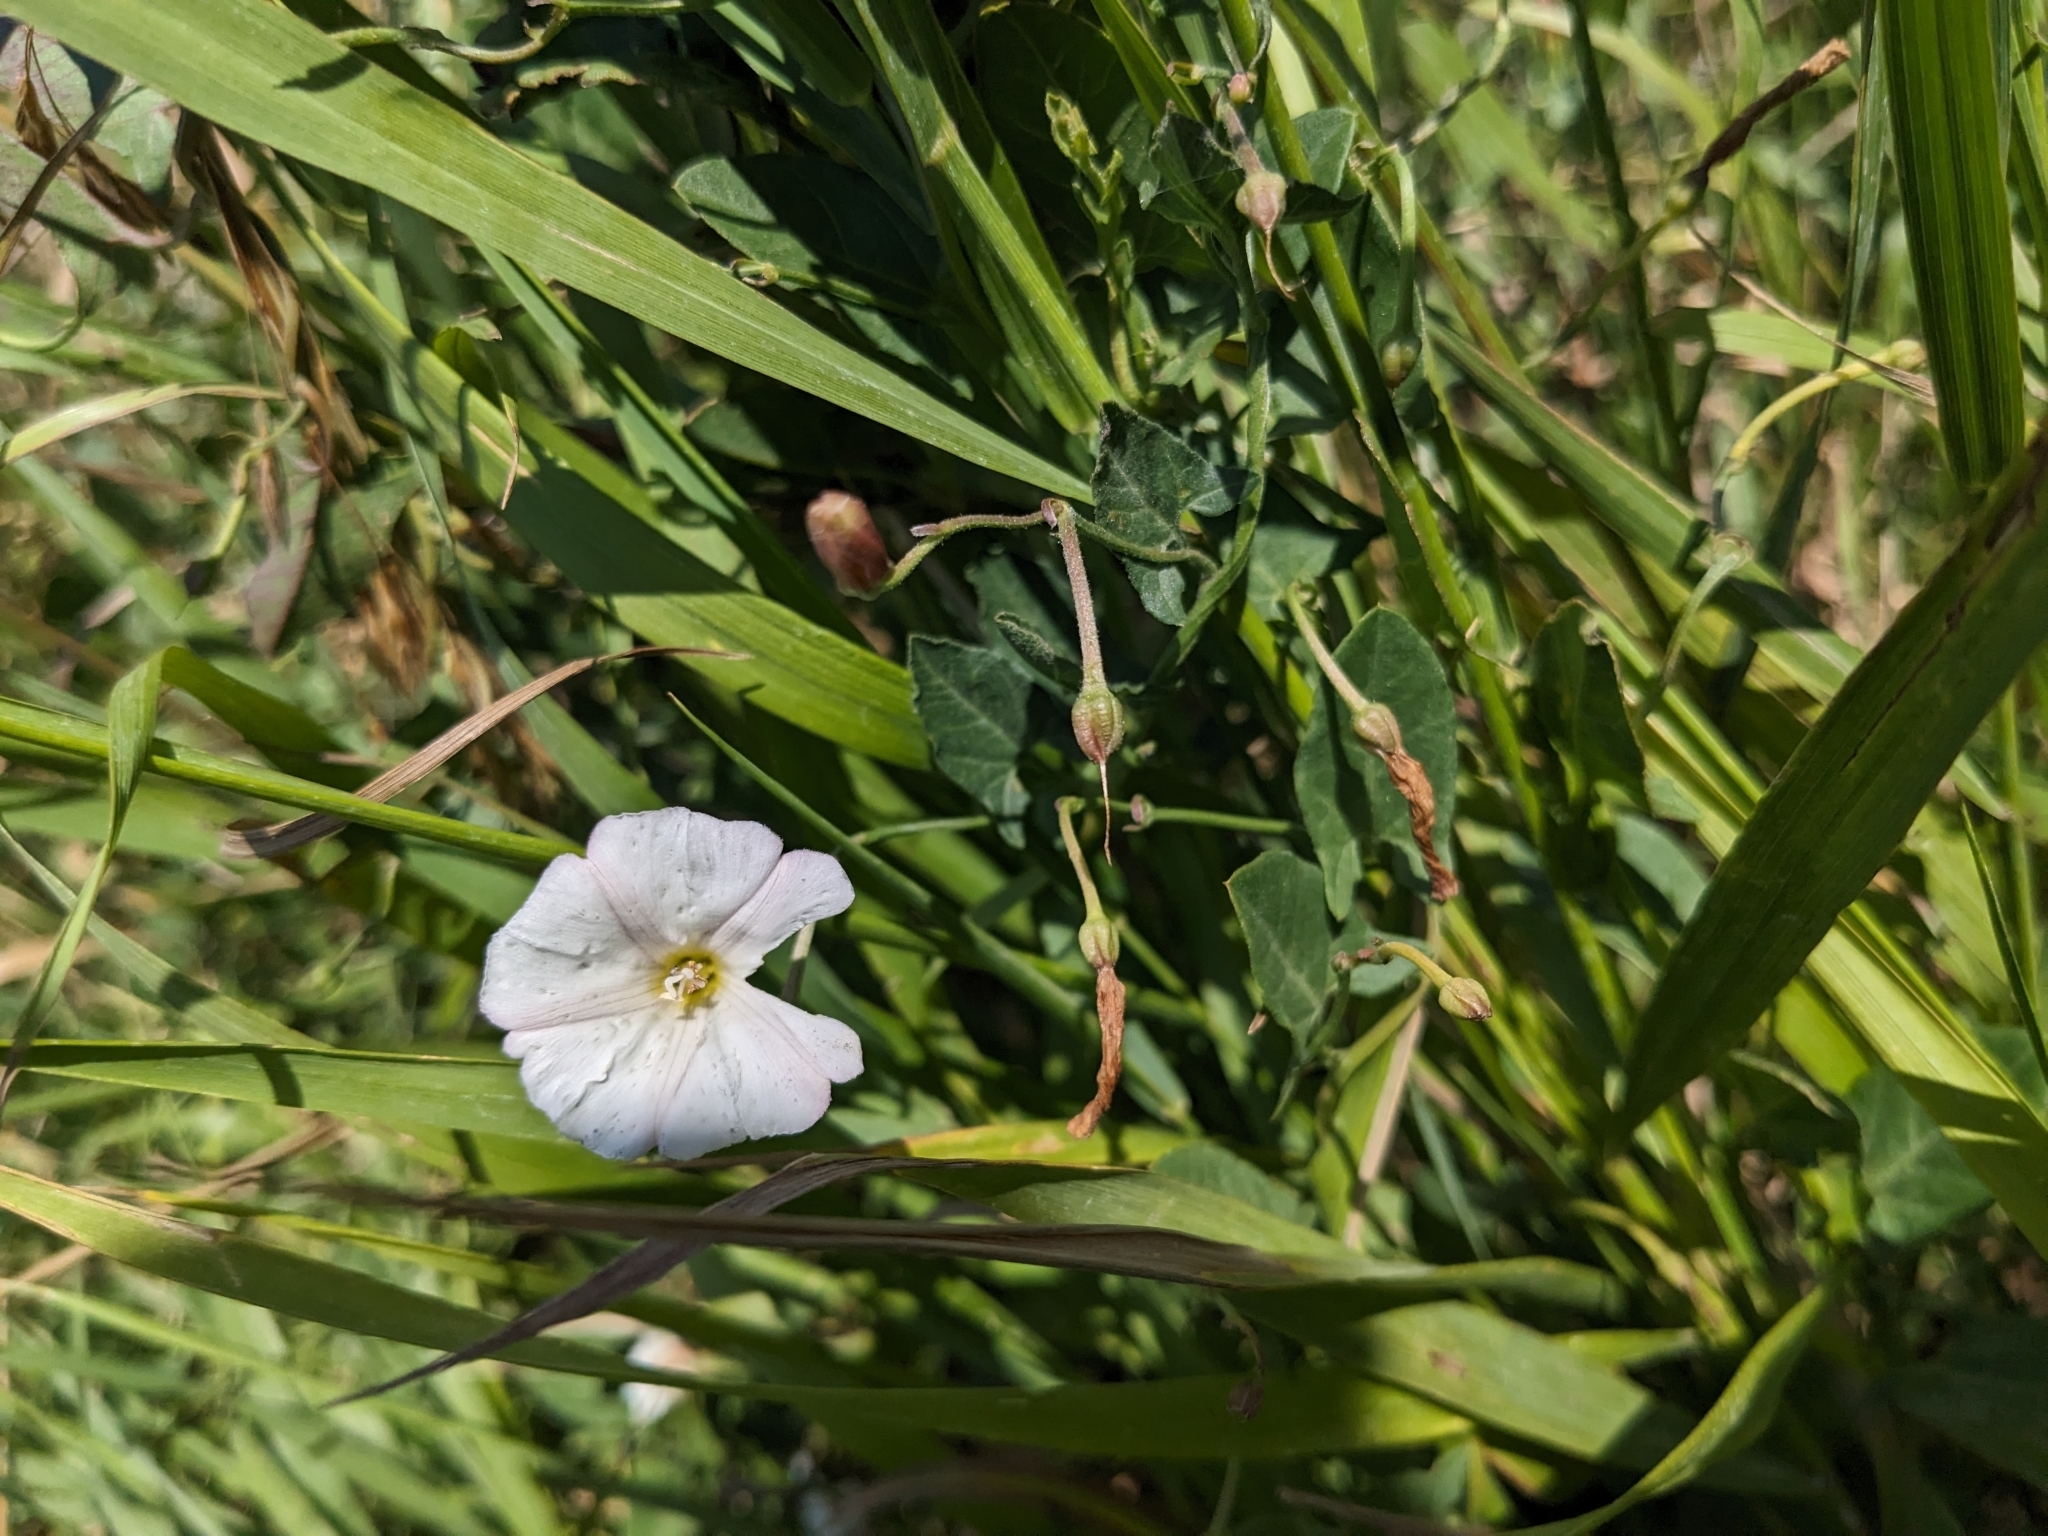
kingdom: Plantae
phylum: Tracheophyta
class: Magnoliopsida
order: Solanales
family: Convolvulaceae
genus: Convolvulus
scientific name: Convolvulus arvensis
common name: Field bindweed
